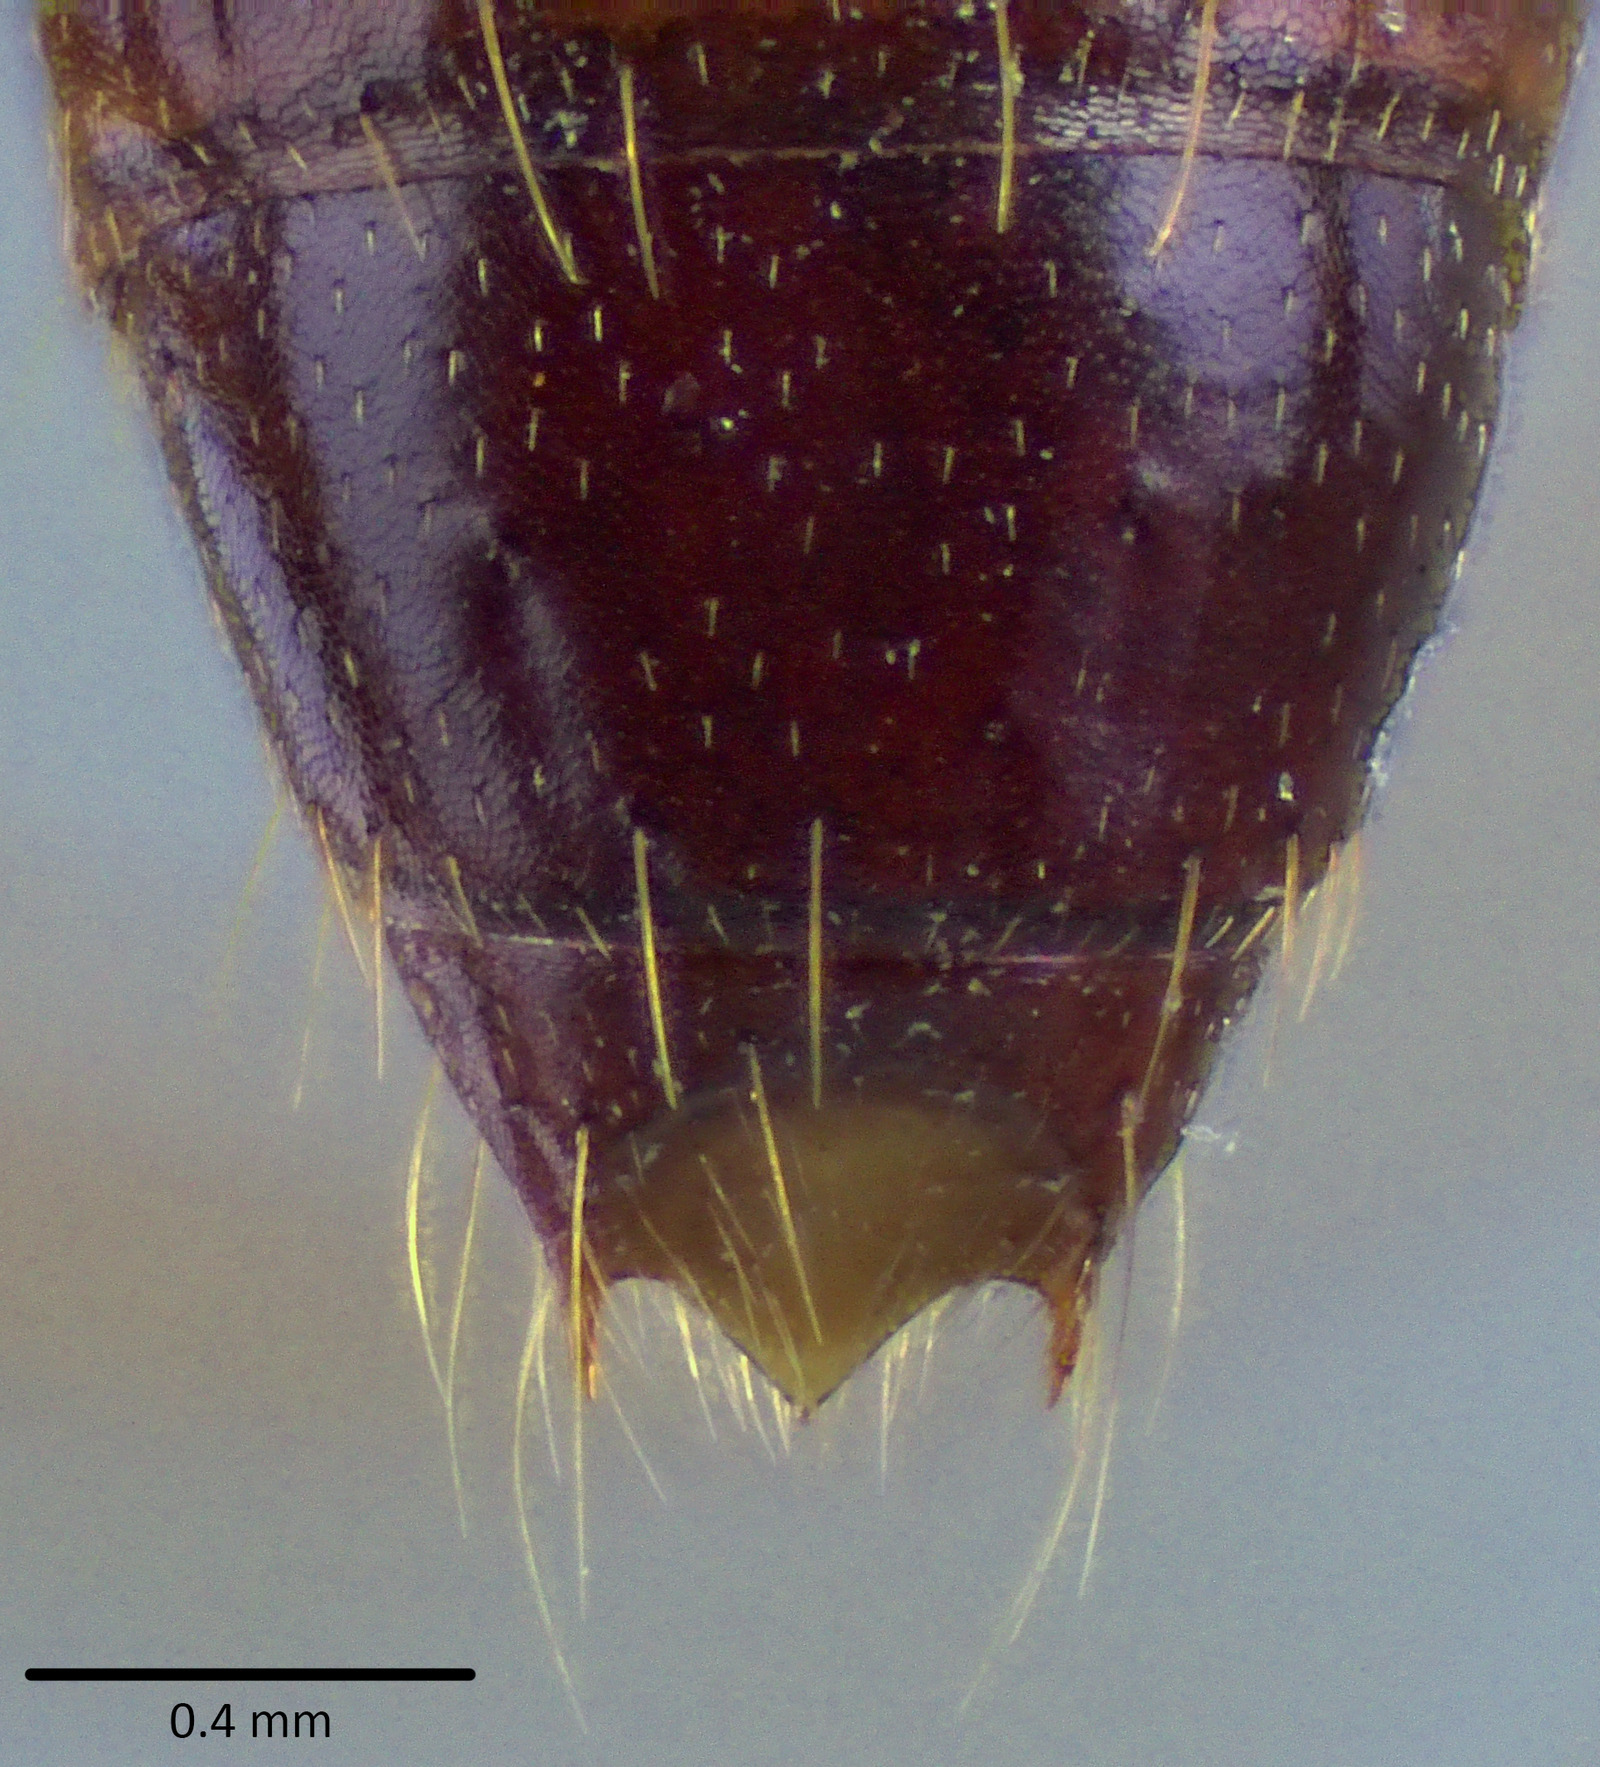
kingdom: Animalia
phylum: Arthropoda
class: Insecta
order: Hymenoptera
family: Formicidae
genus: Dorylus
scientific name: Dorylus nigricans
